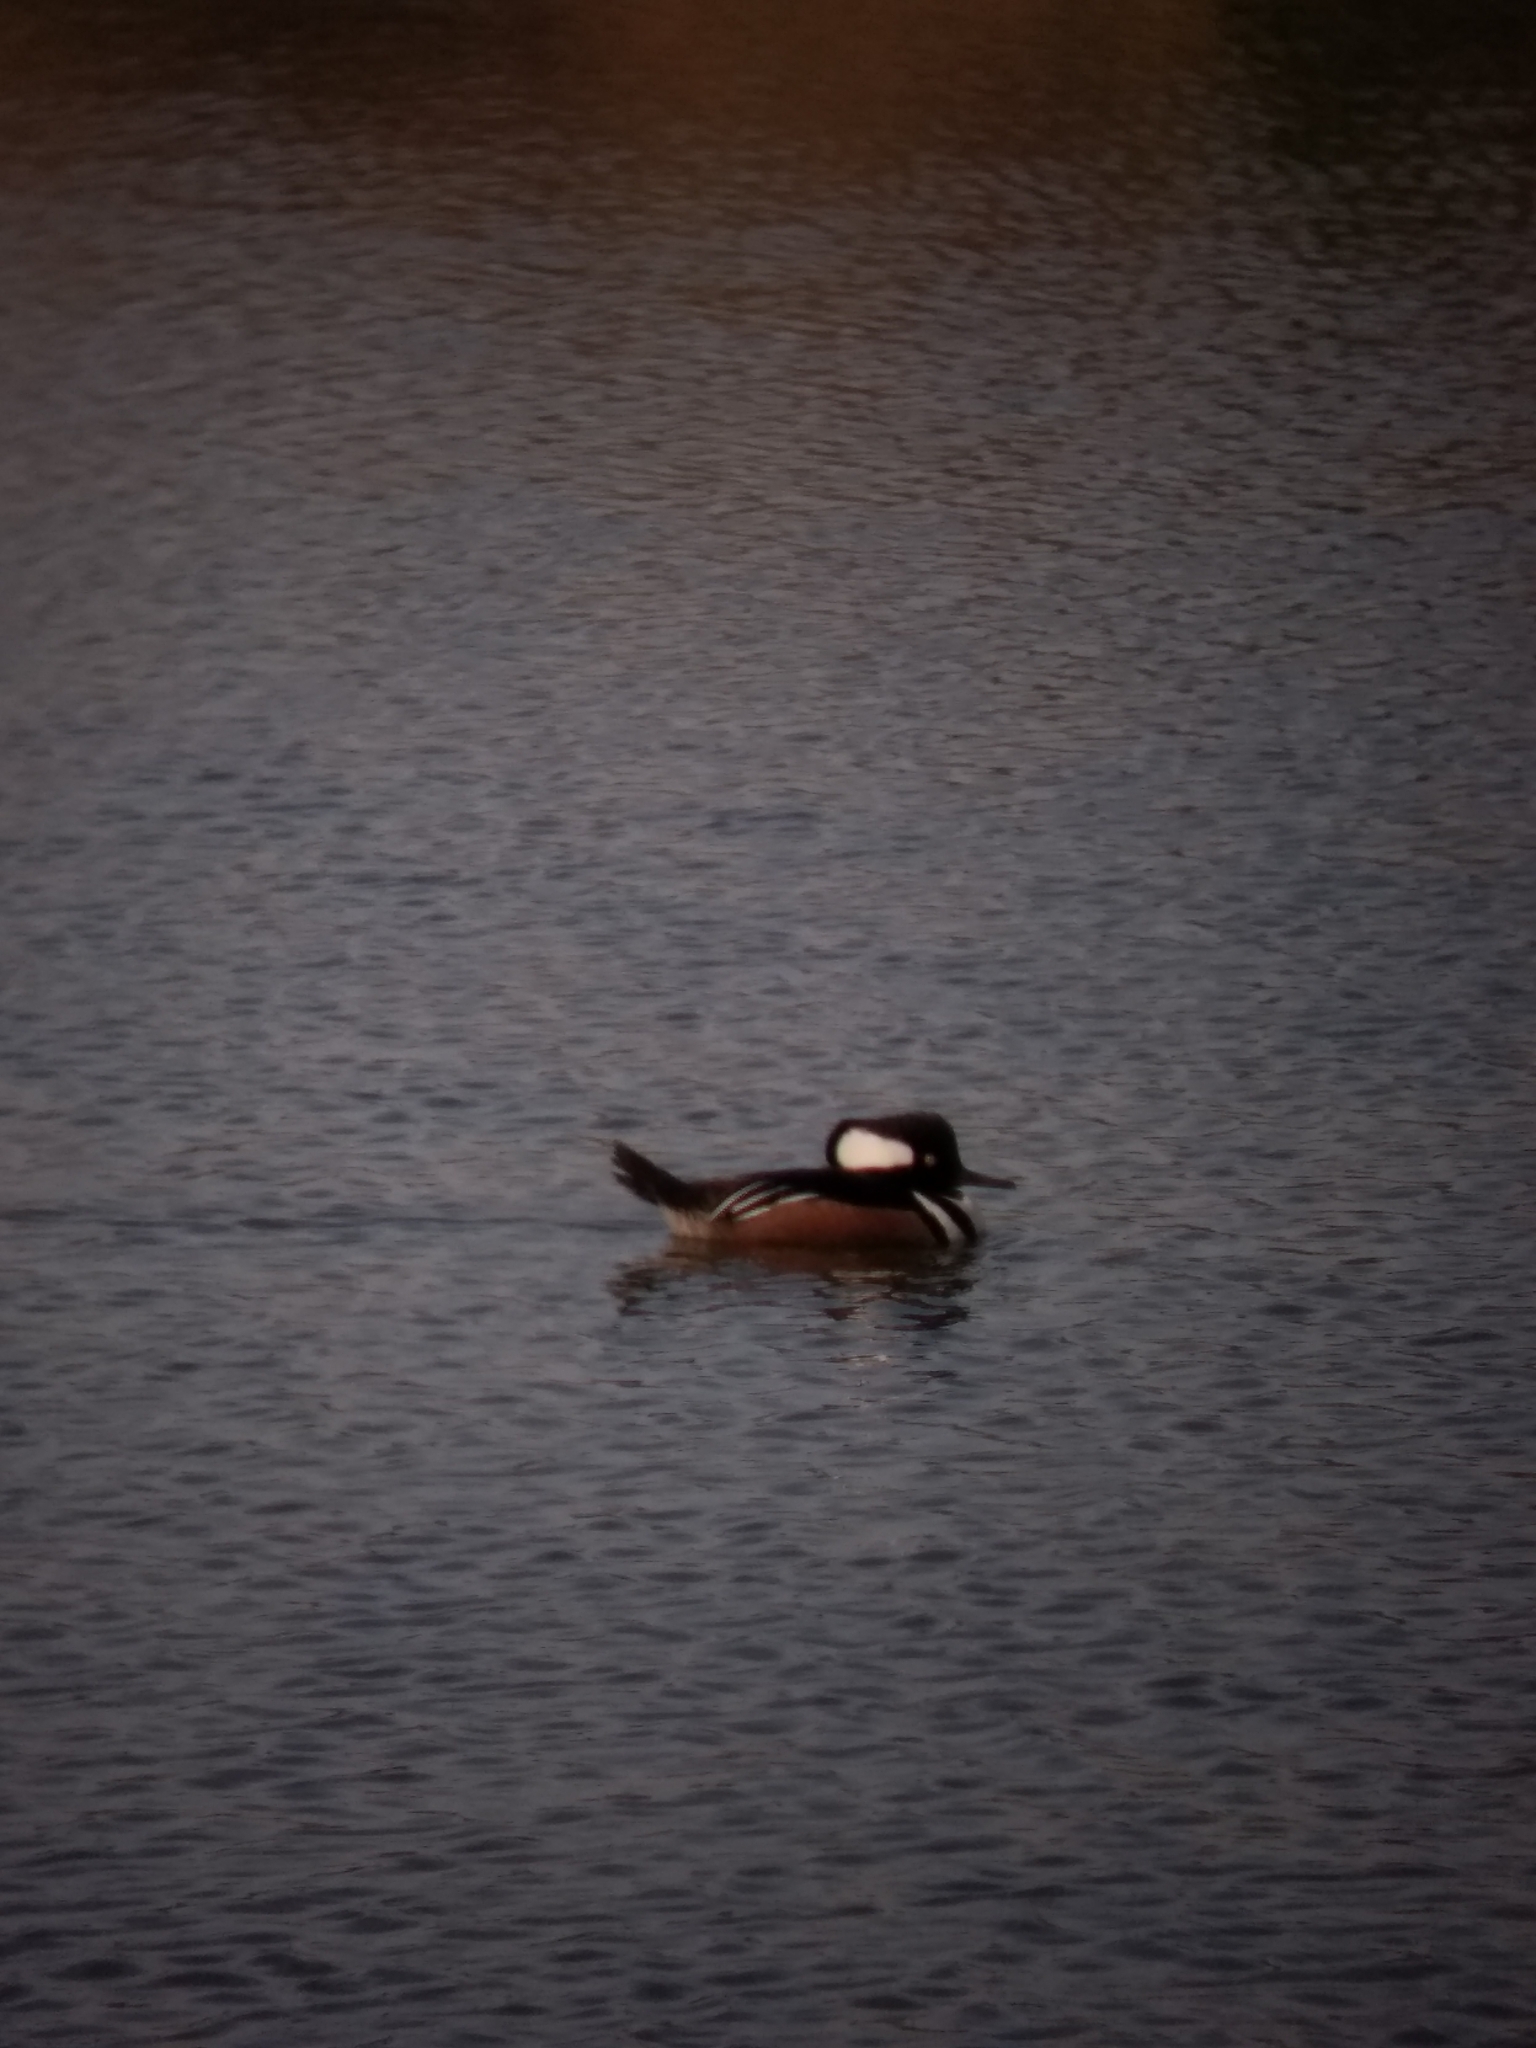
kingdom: Animalia
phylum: Chordata
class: Aves
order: Anseriformes
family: Anatidae
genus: Lophodytes
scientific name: Lophodytes cucullatus
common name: Hooded merganser
